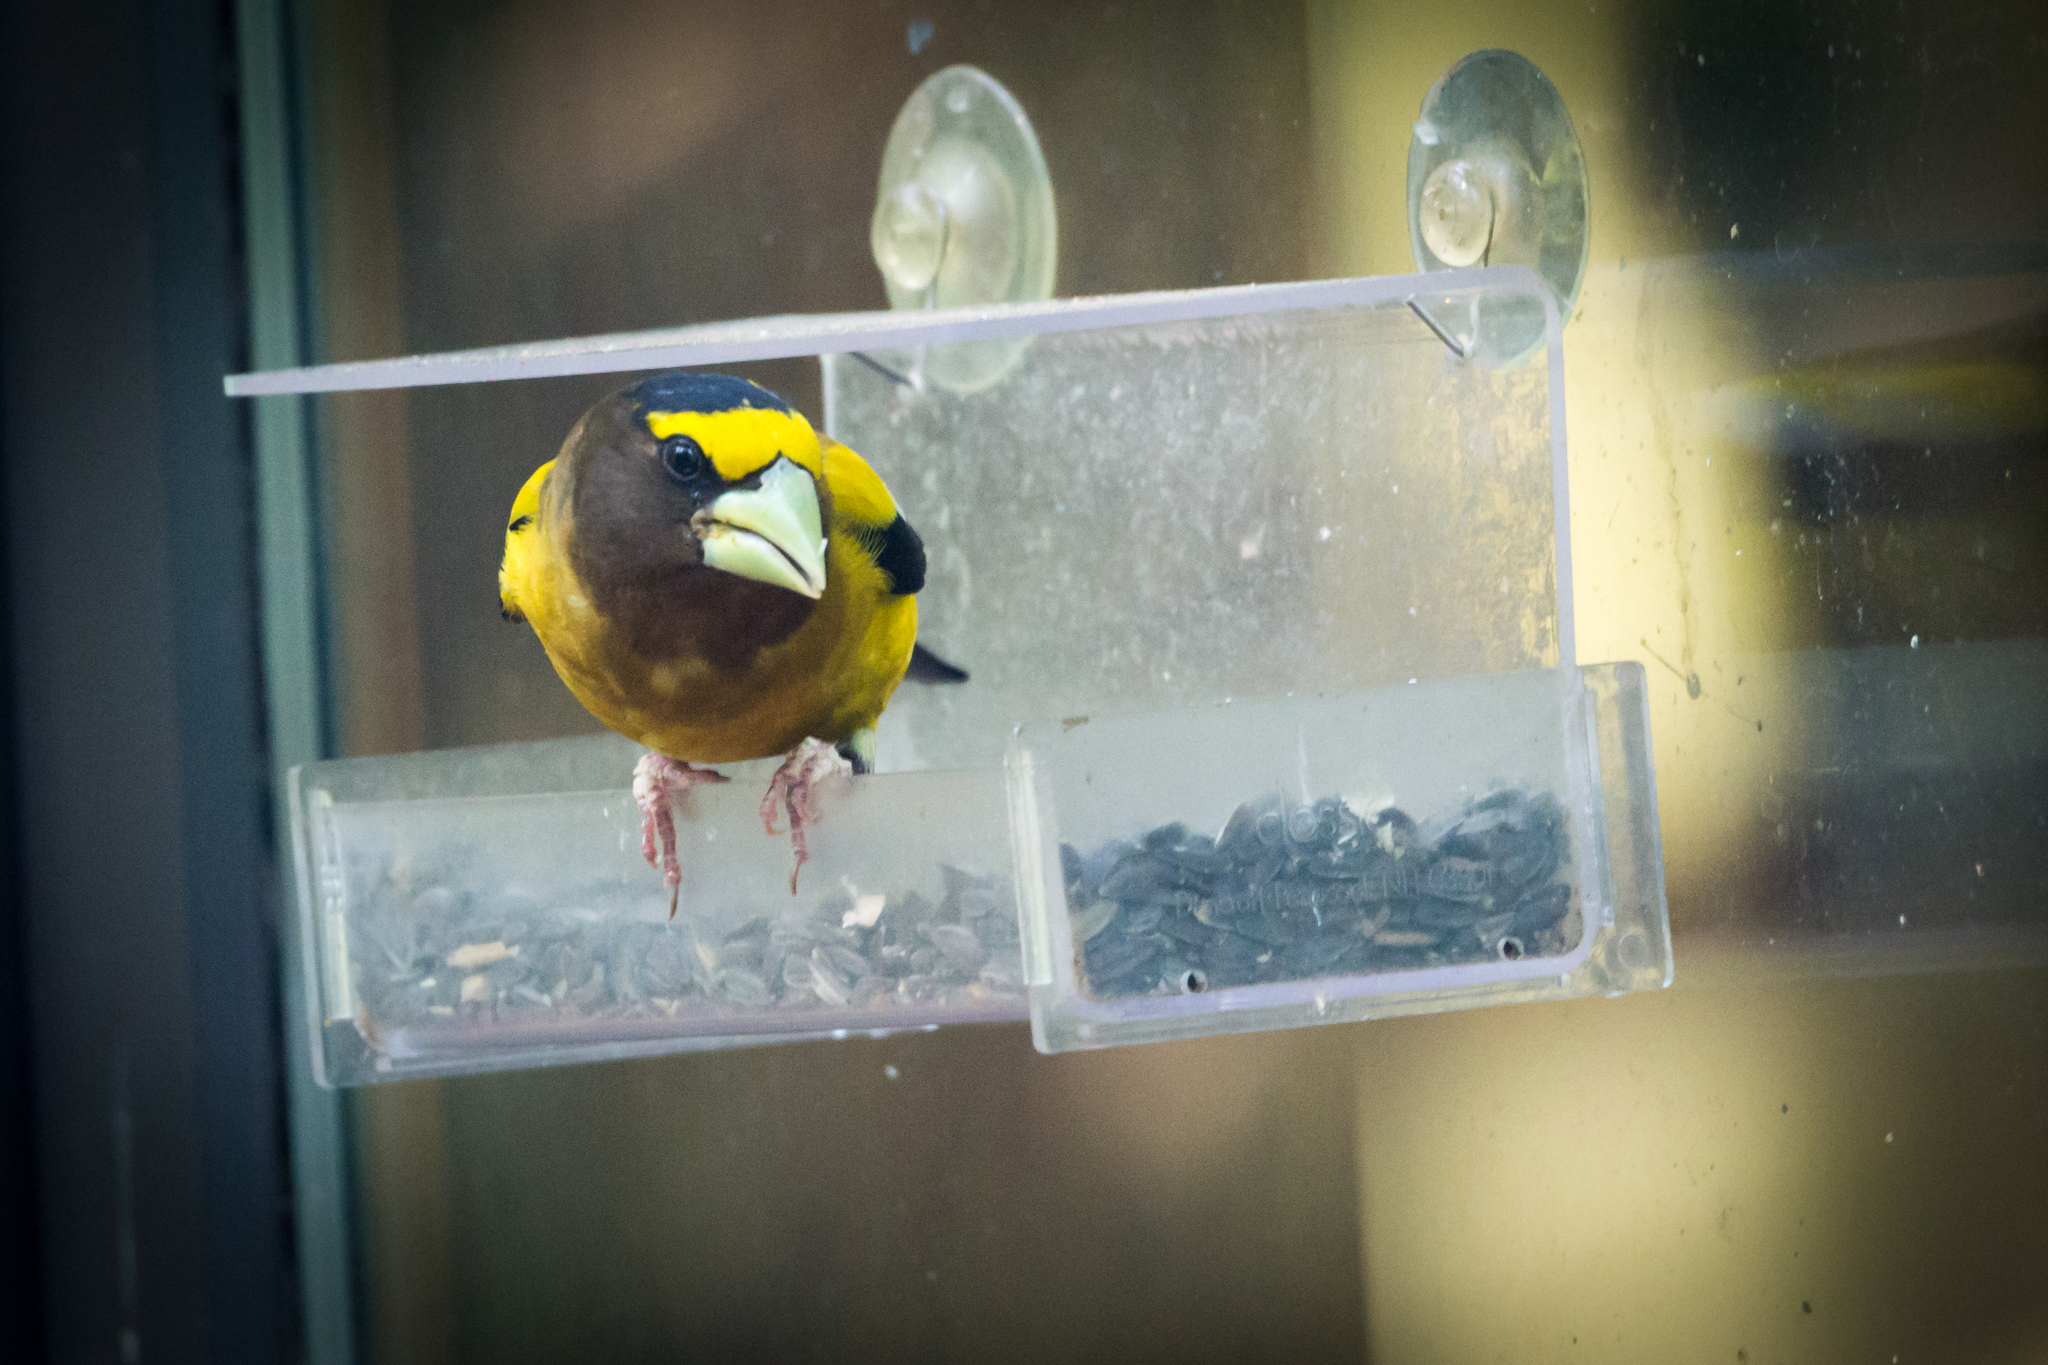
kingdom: Animalia
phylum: Chordata
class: Aves
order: Passeriformes
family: Fringillidae
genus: Hesperiphona
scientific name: Hesperiphona vespertina
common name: Evening grosbeak
